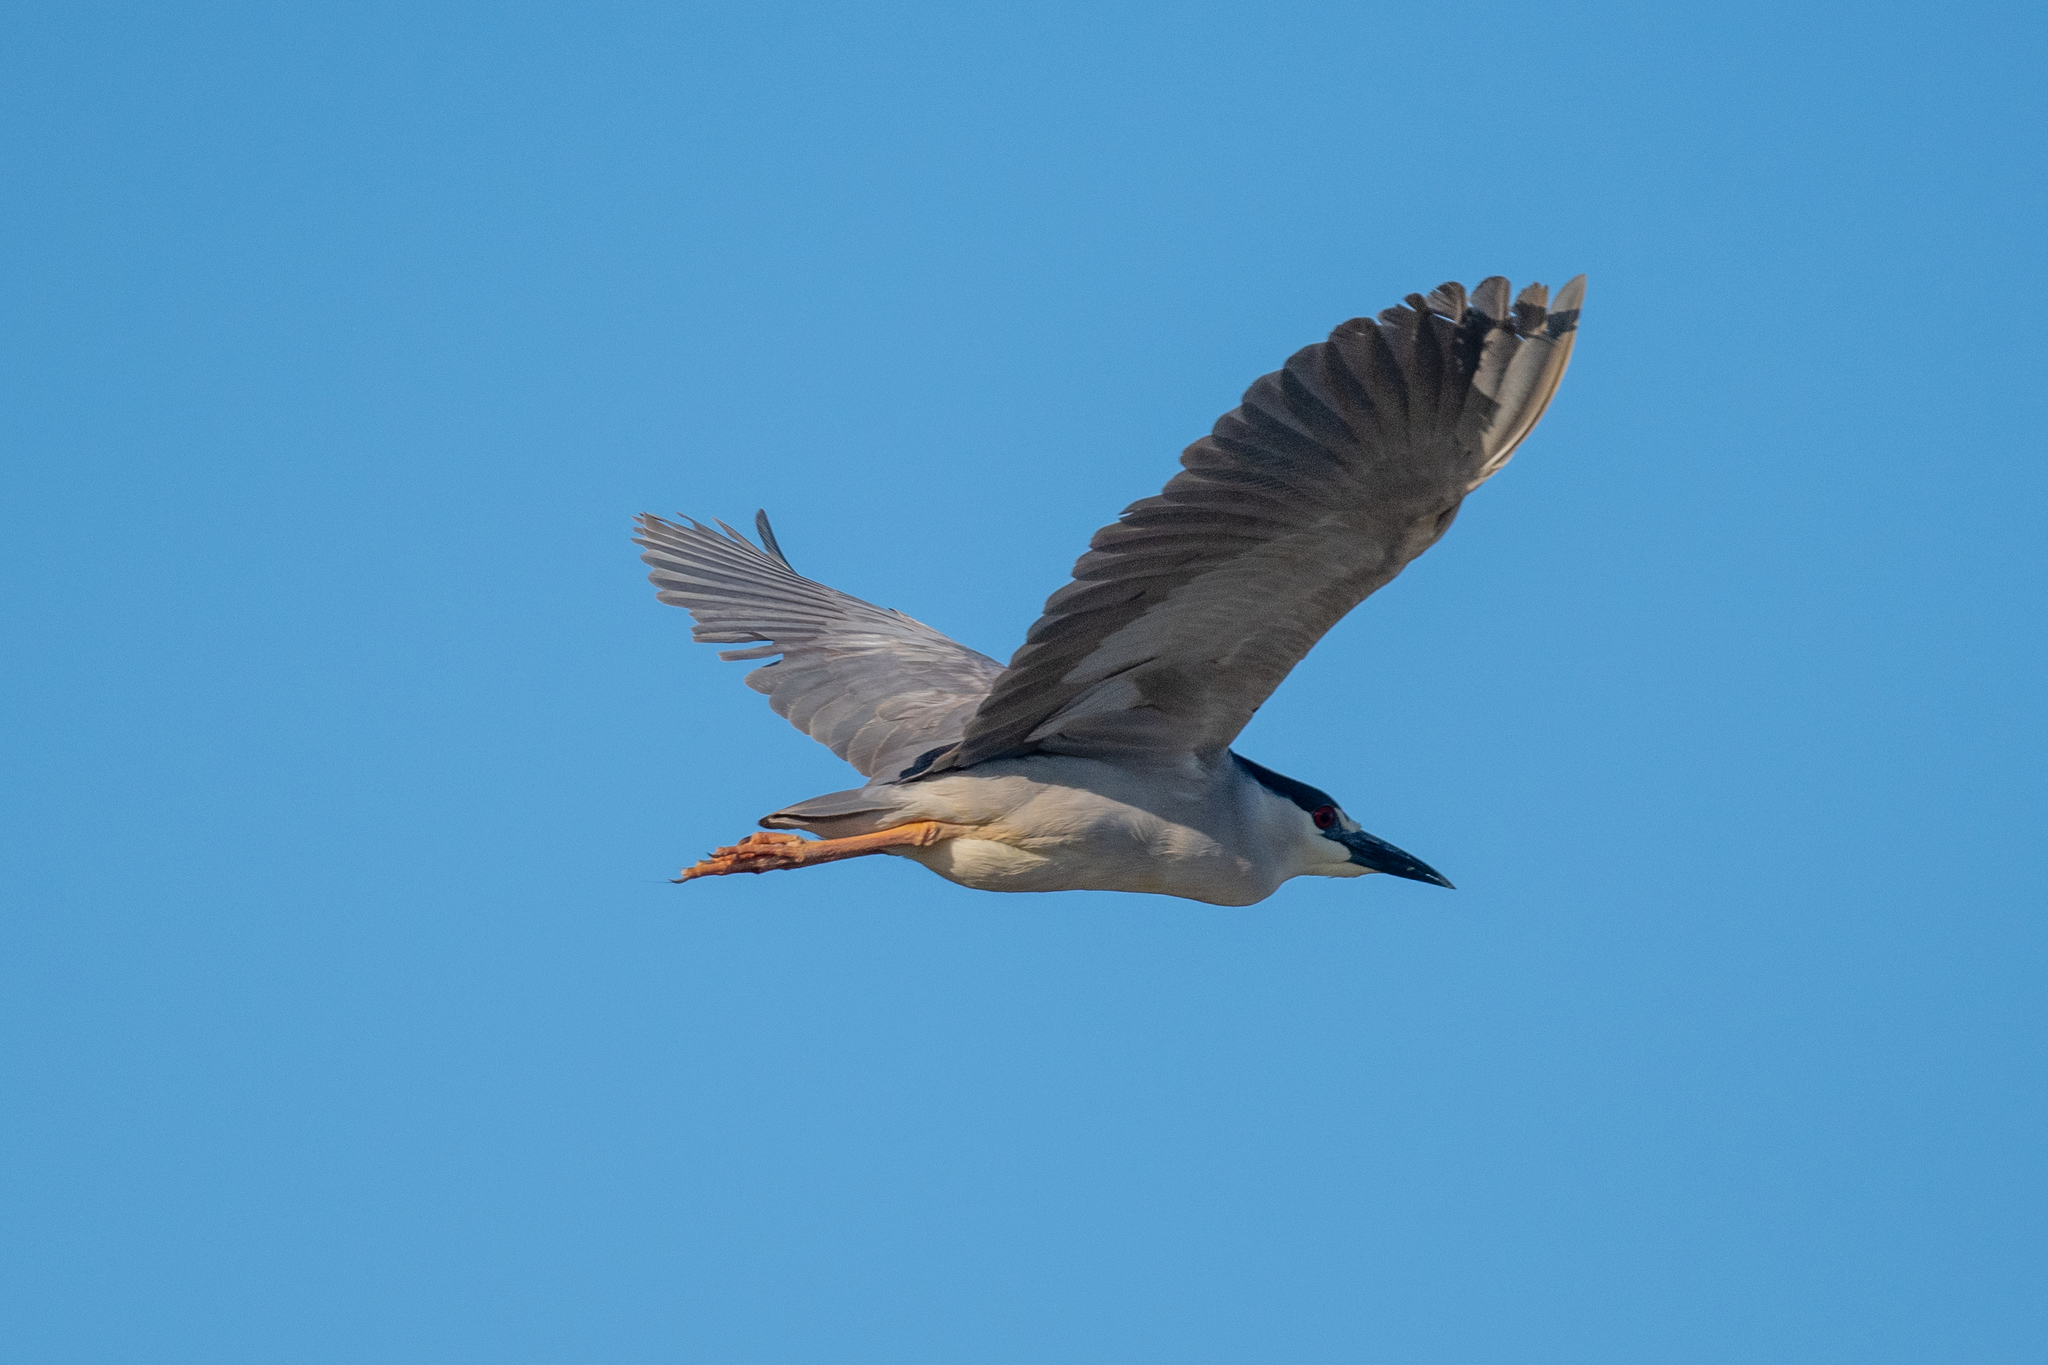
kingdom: Animalia
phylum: Chordata
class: Aves
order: Pelecaniformes
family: Ardeidae
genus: Nycticorax
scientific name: Nycticorax nycticorax
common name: Black-crowned night heron
